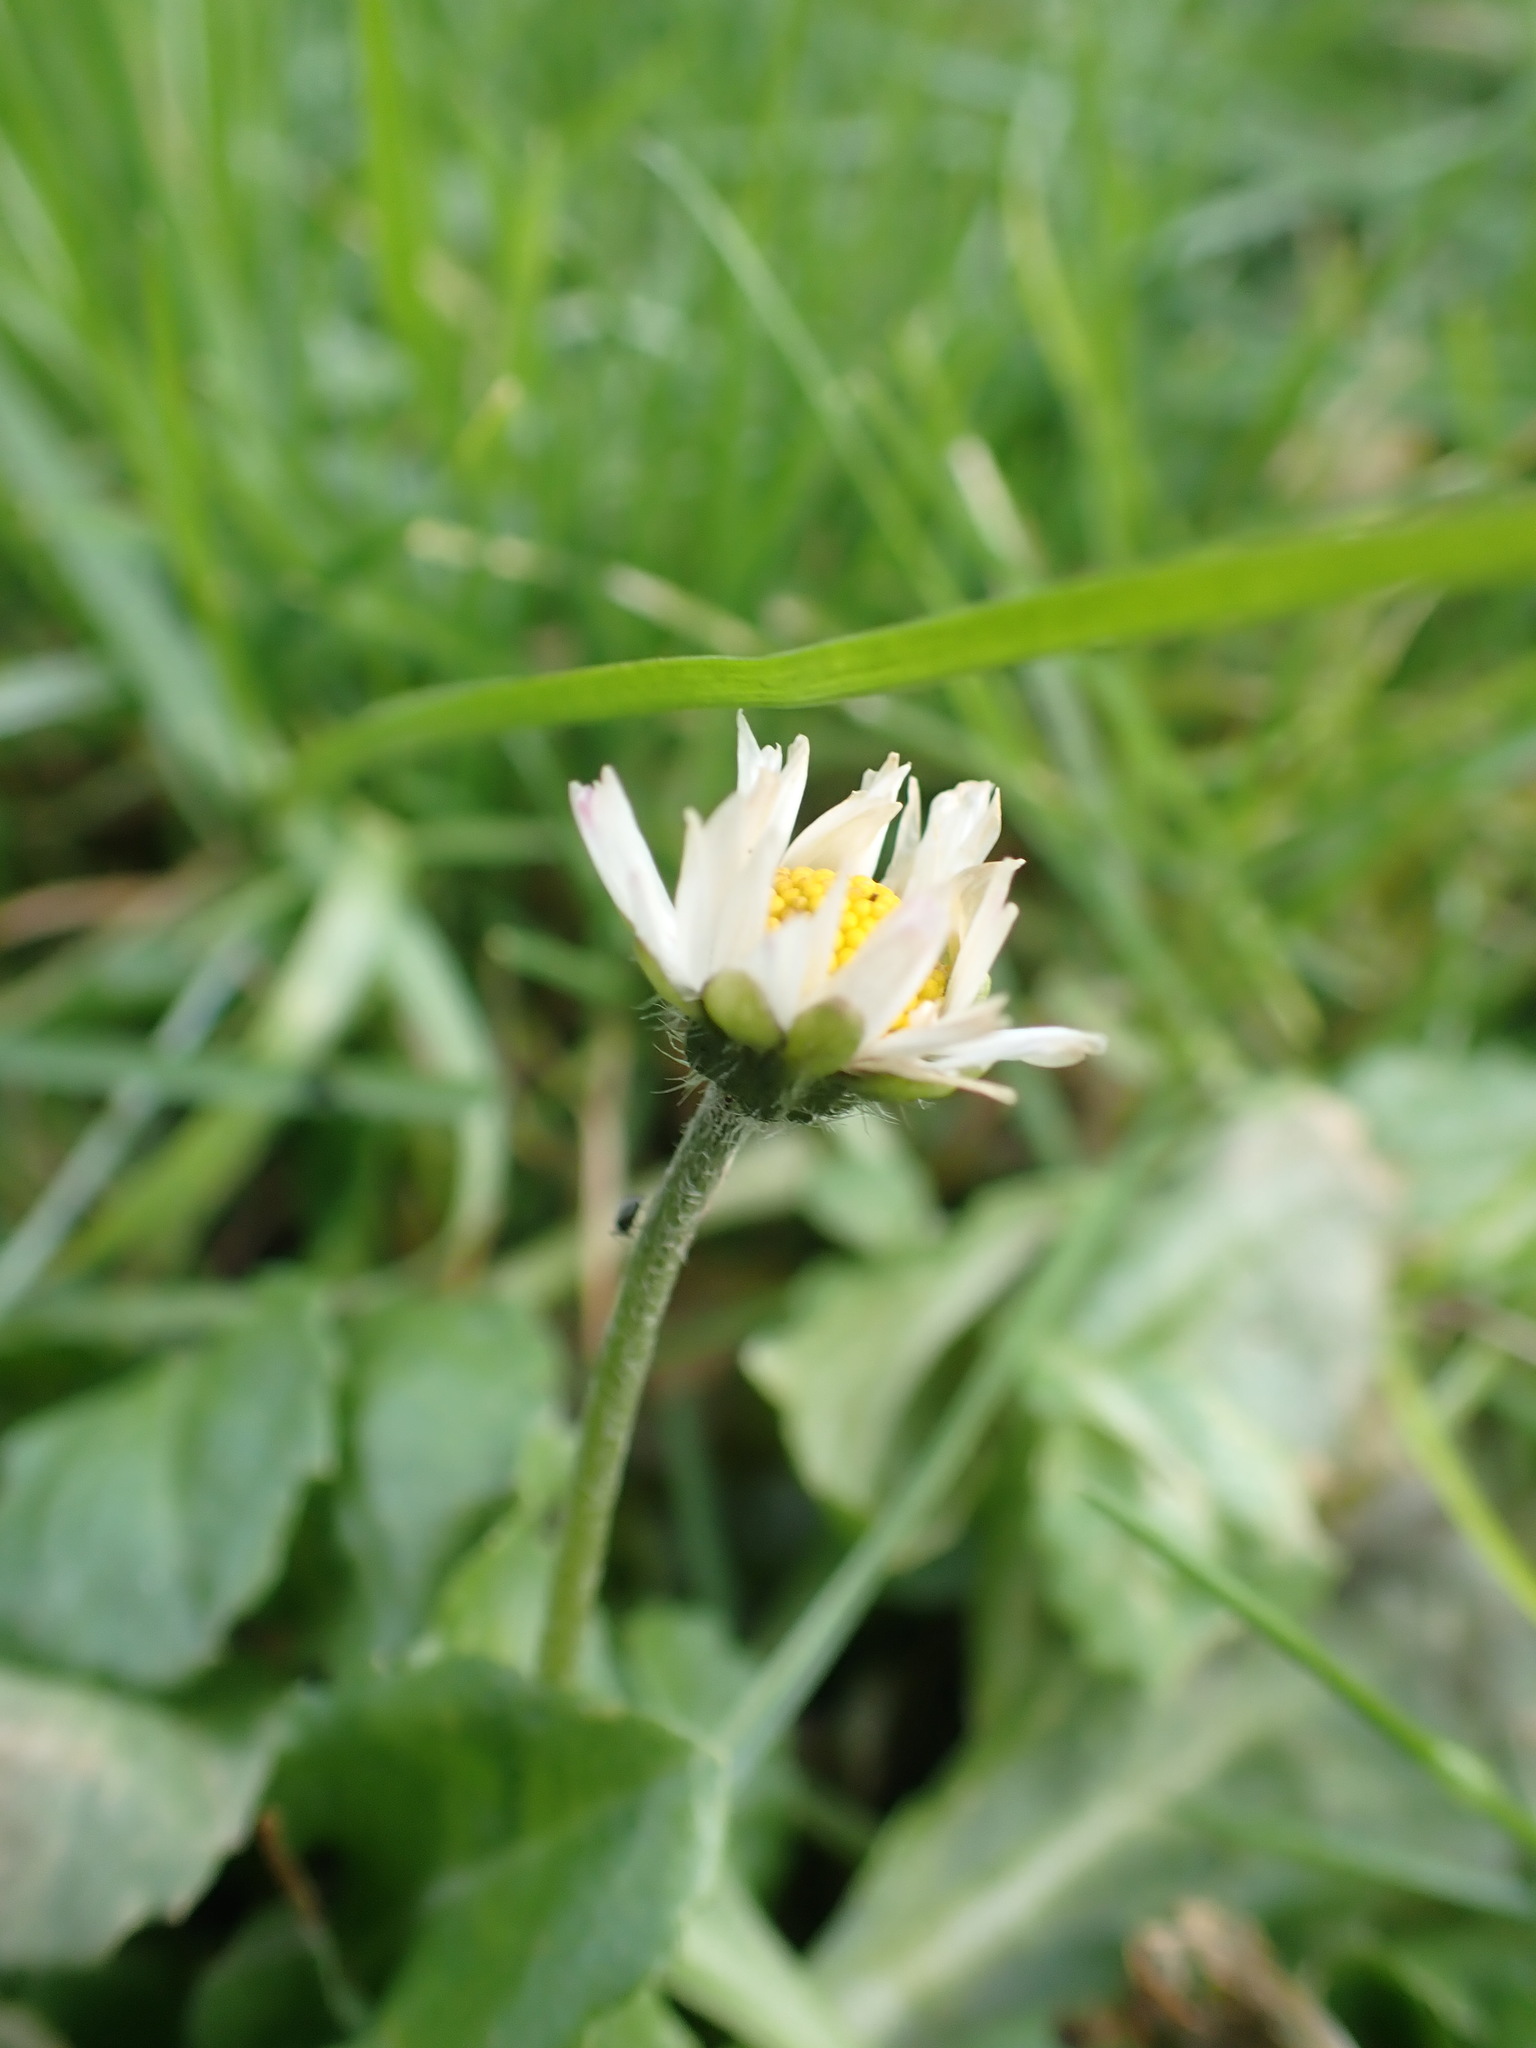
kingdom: Plantae
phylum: Tracheophyta
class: Magnoliopsida
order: Asterales
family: Asteraceae
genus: Bellis
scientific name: Bellis perennis
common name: Lawndaisy
